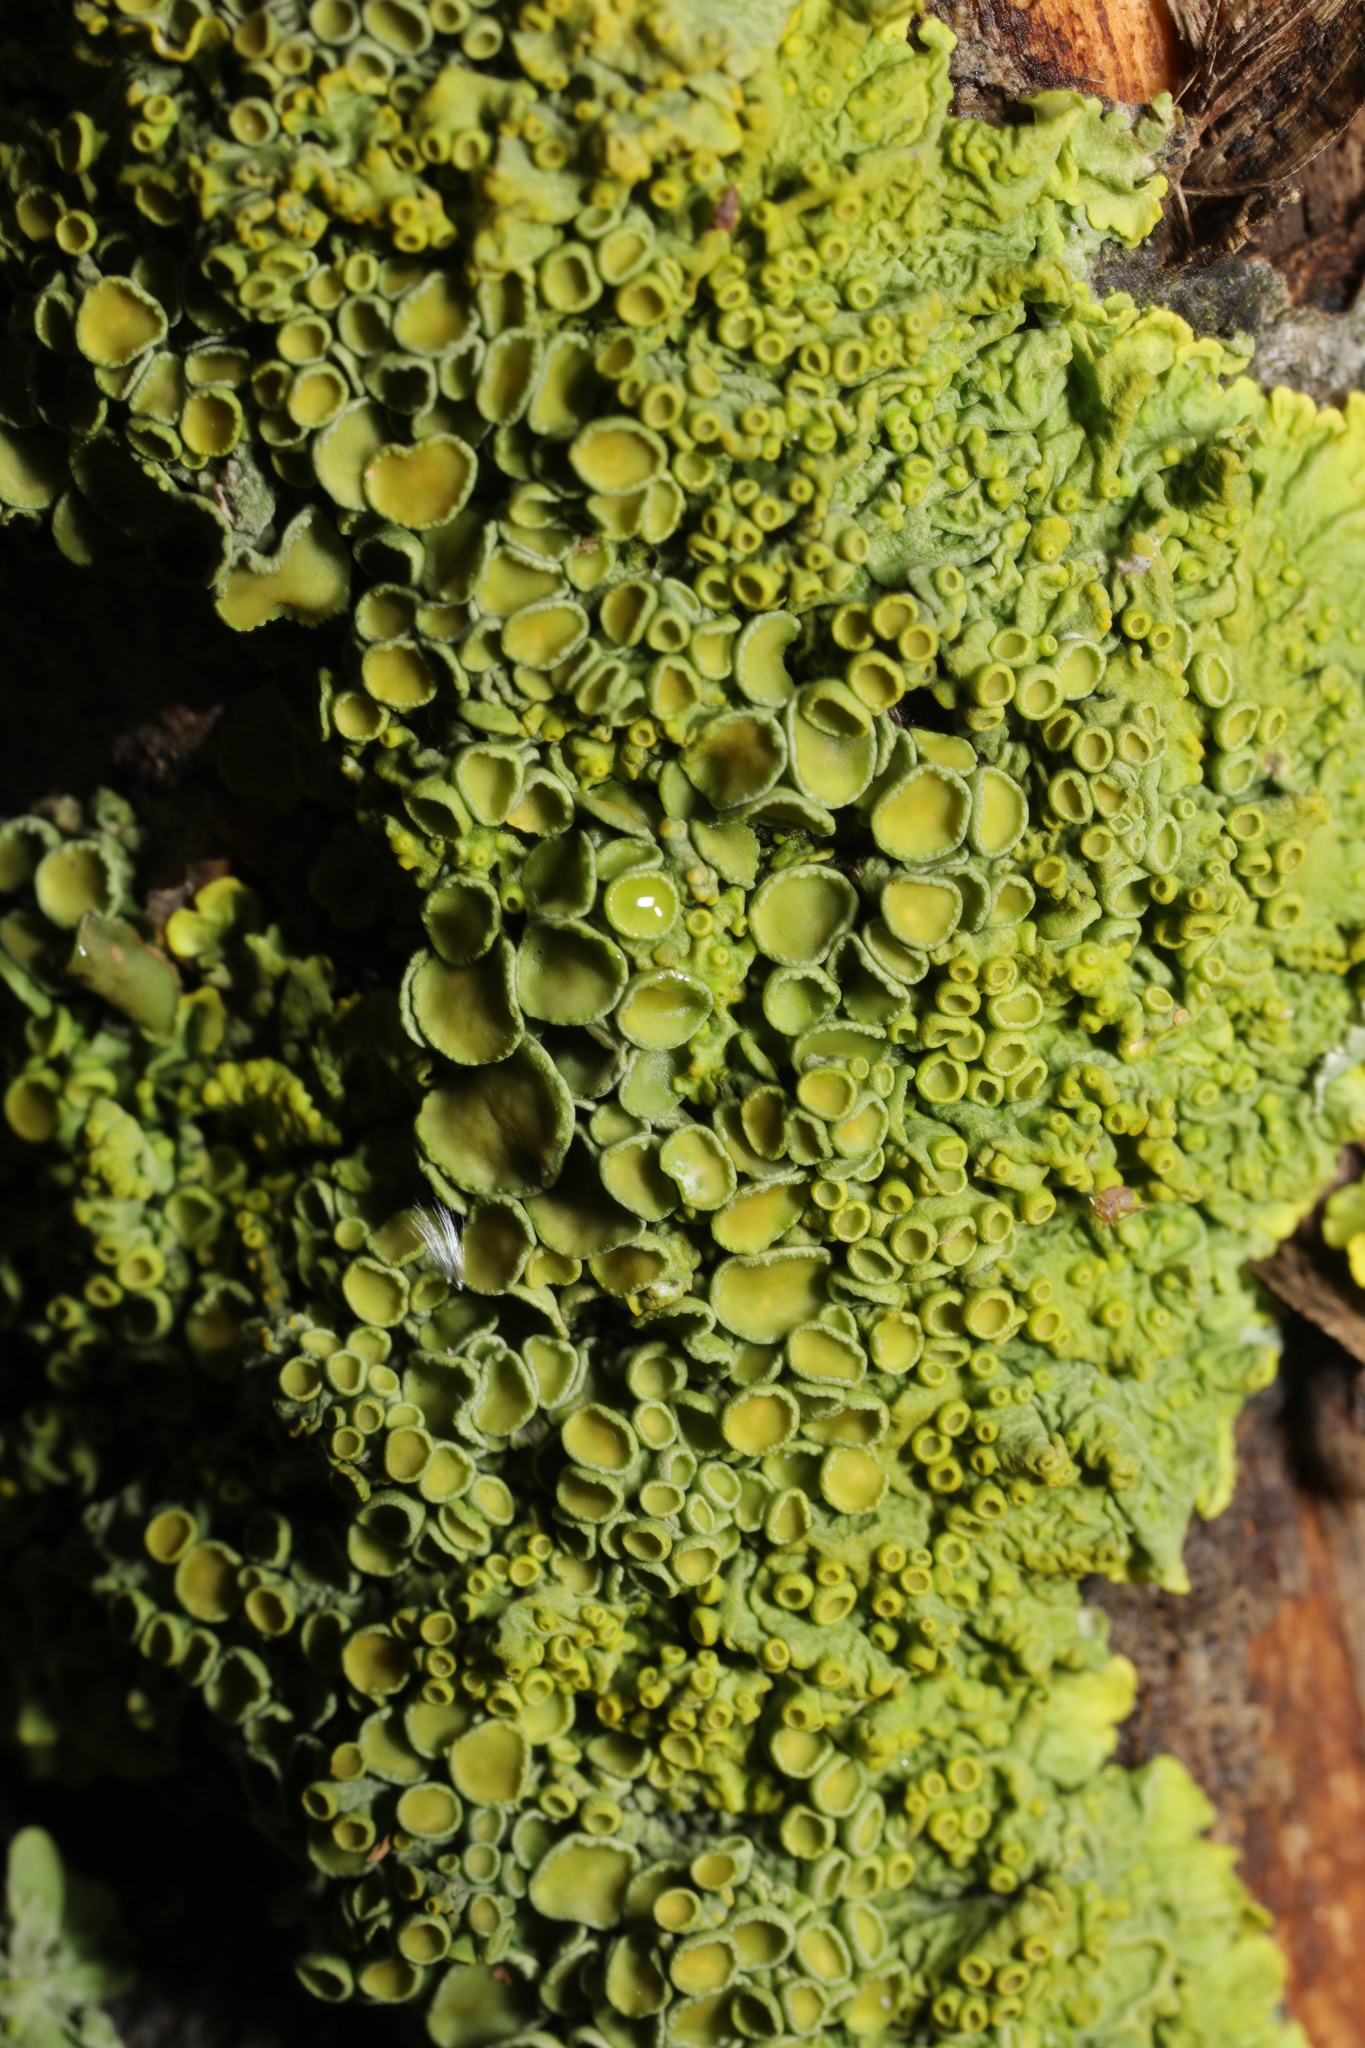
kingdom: Fungi
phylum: Ascomycota
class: Lecanoromycetes
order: Teloschistales
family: Teloschistaceae
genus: Xanthoria
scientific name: Xanthoria parietina
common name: Common orange lichen
